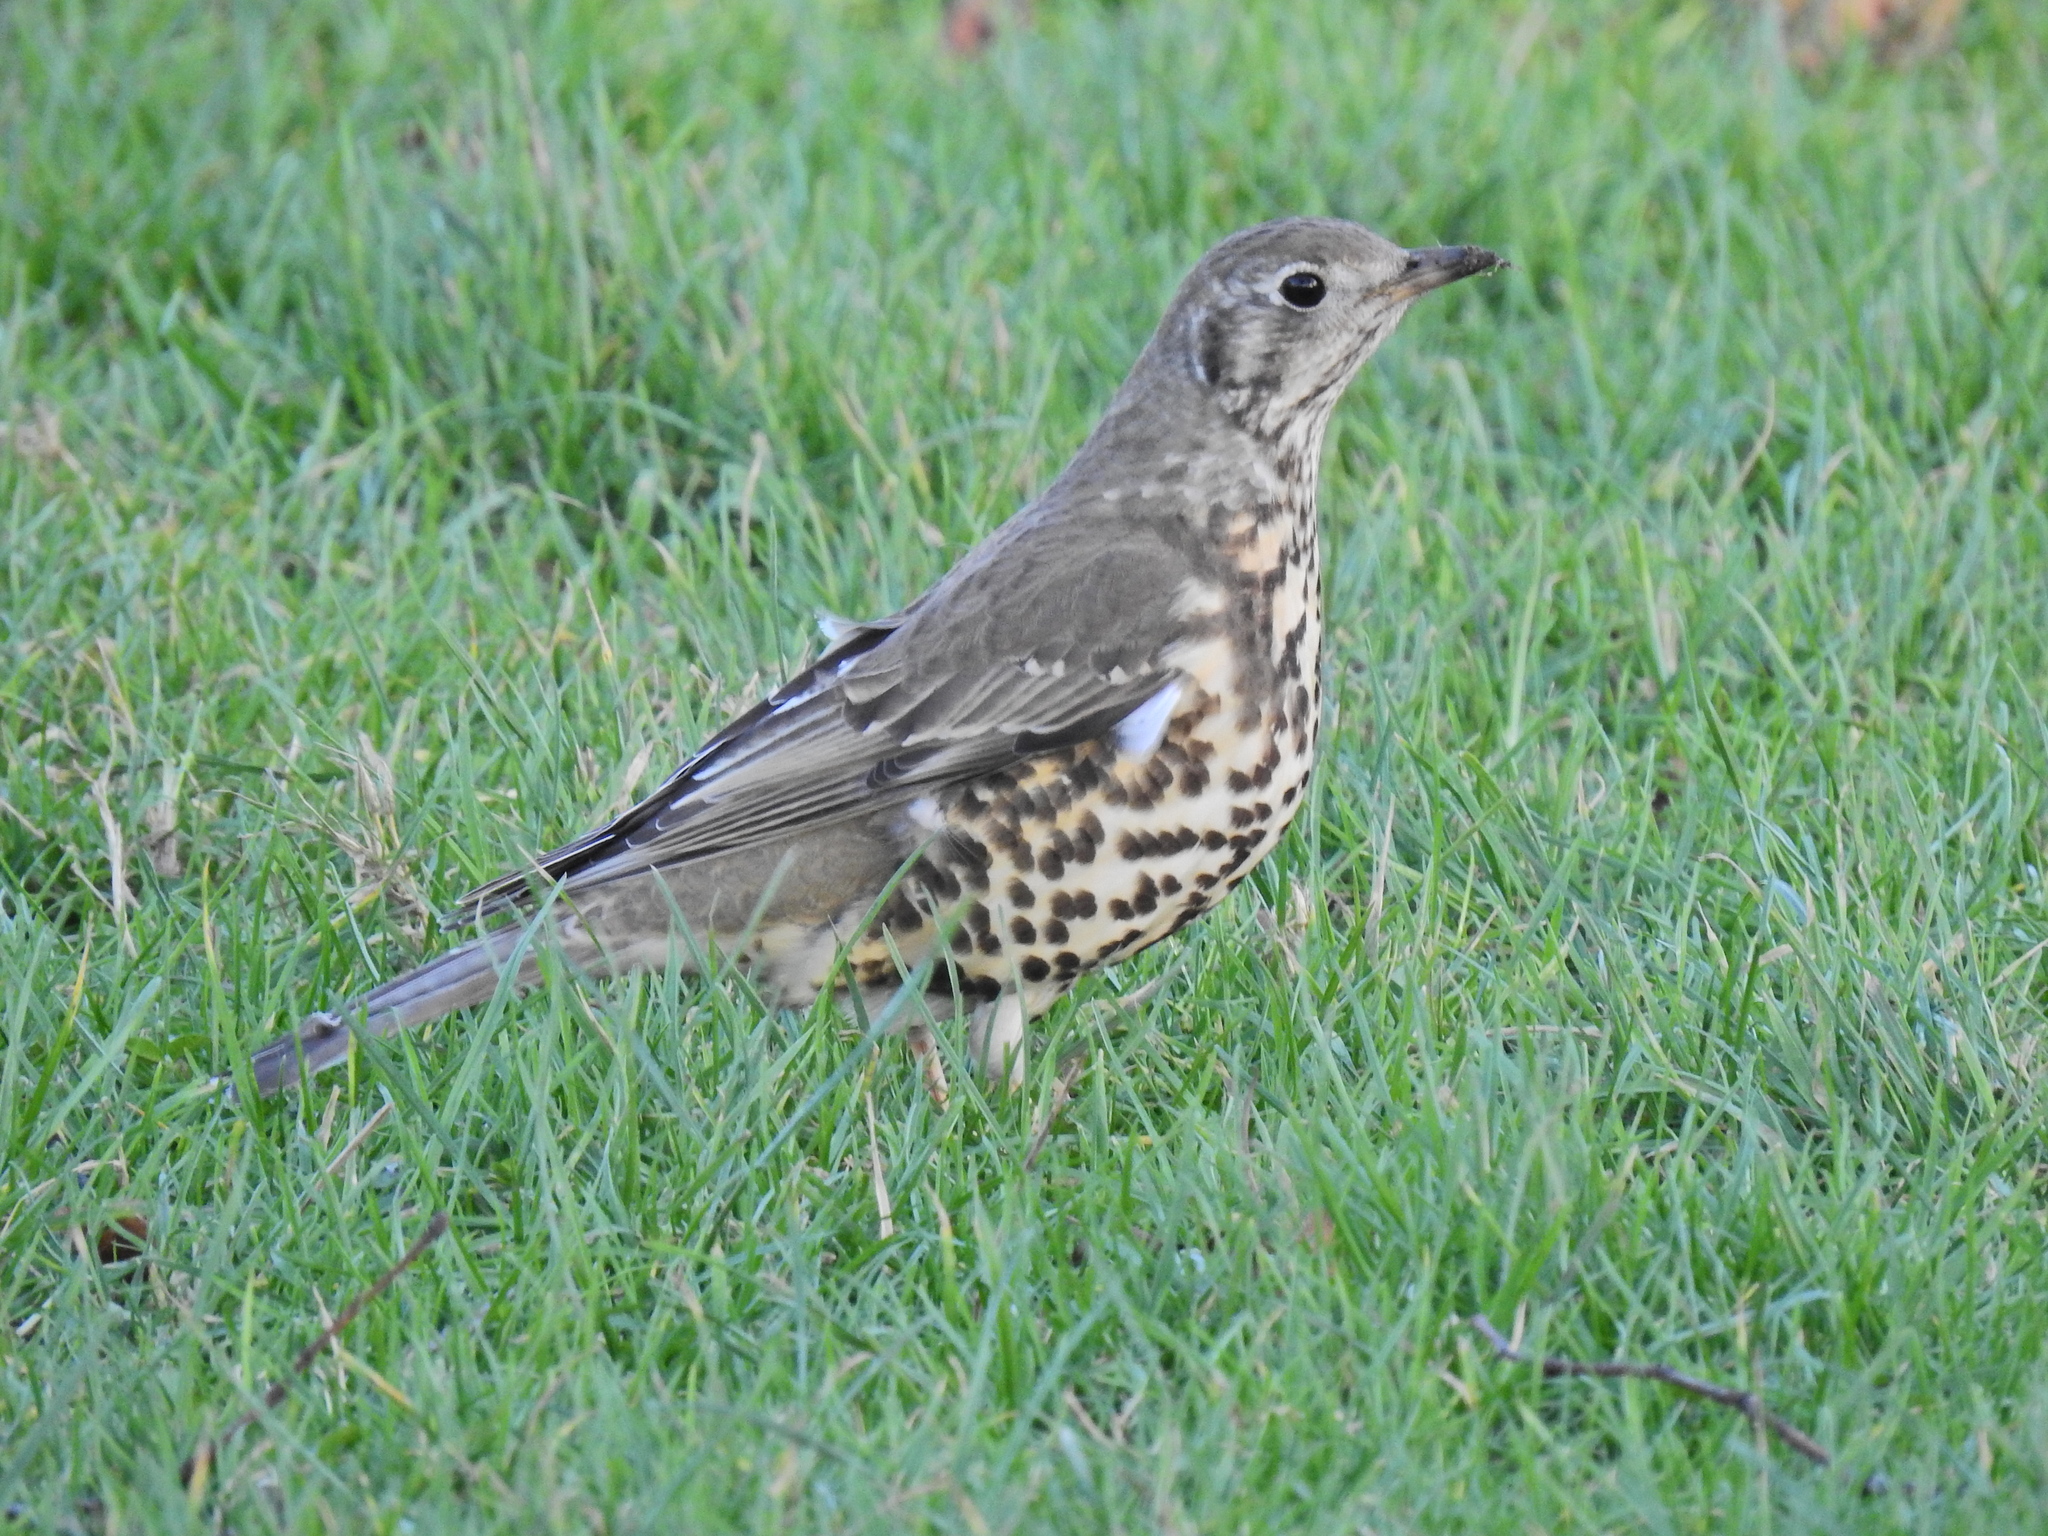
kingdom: Animalia
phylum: Chordata
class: Aves
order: Passeriformes
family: Turdidae
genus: Turdus
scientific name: Turdus viscivorus
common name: Mistle thrush
